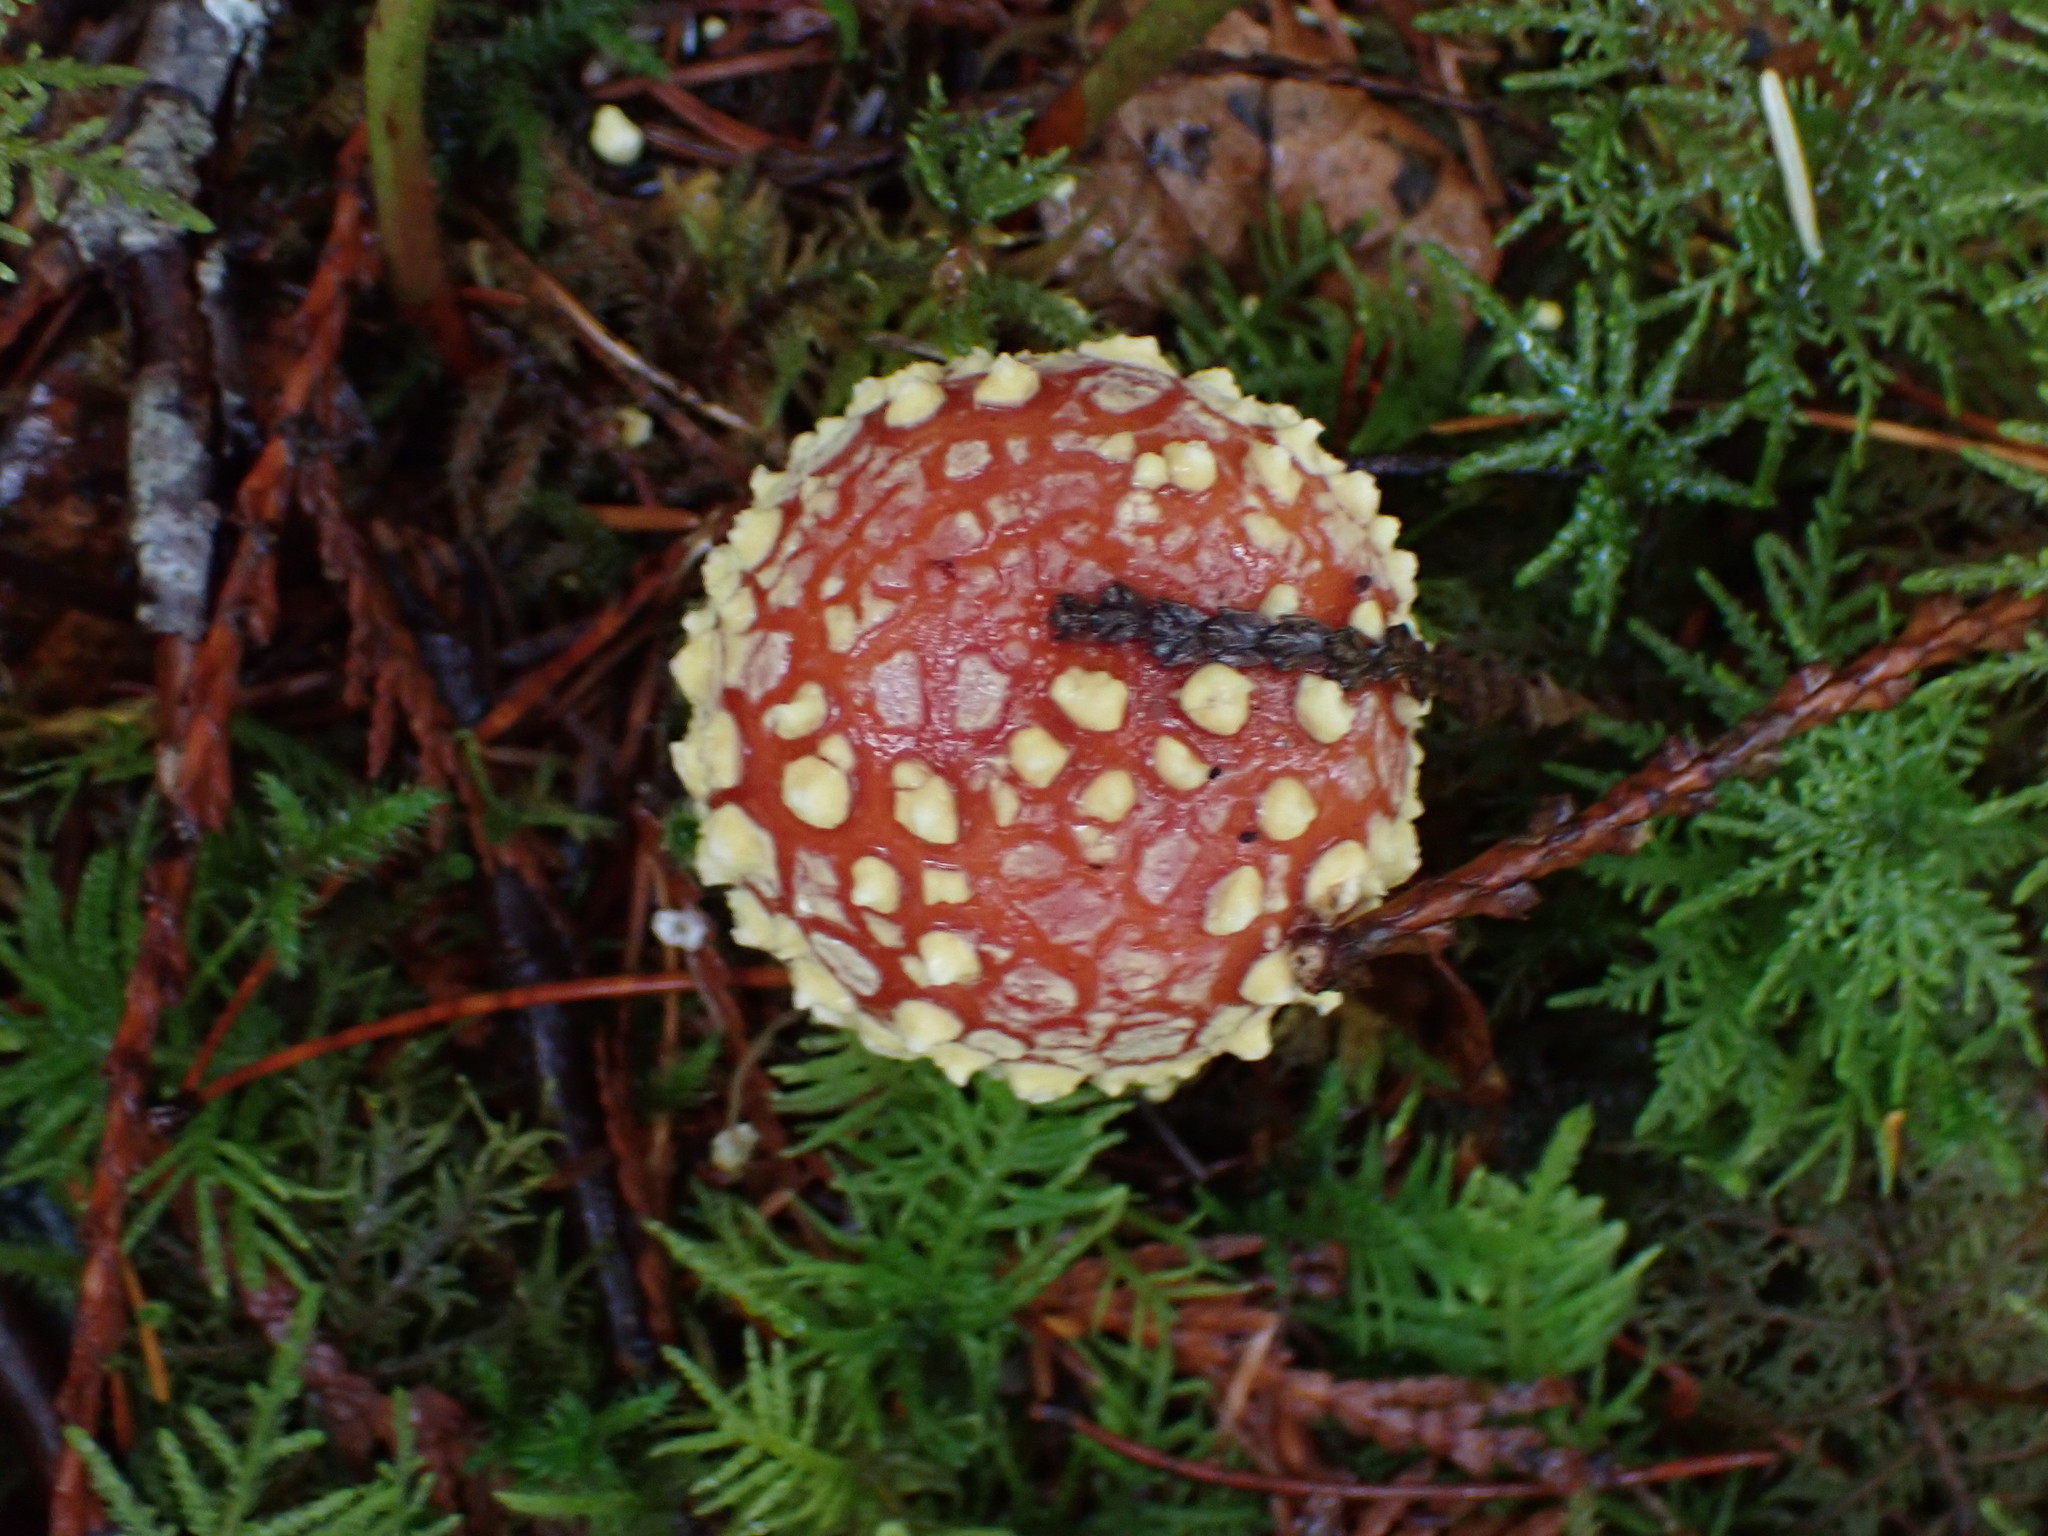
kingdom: Fungi
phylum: Basidiomycota
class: Agaricomycetes
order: Agaricales
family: Amanitaceae
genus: Amanita
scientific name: Amanita muscaria
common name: Fly agaric
